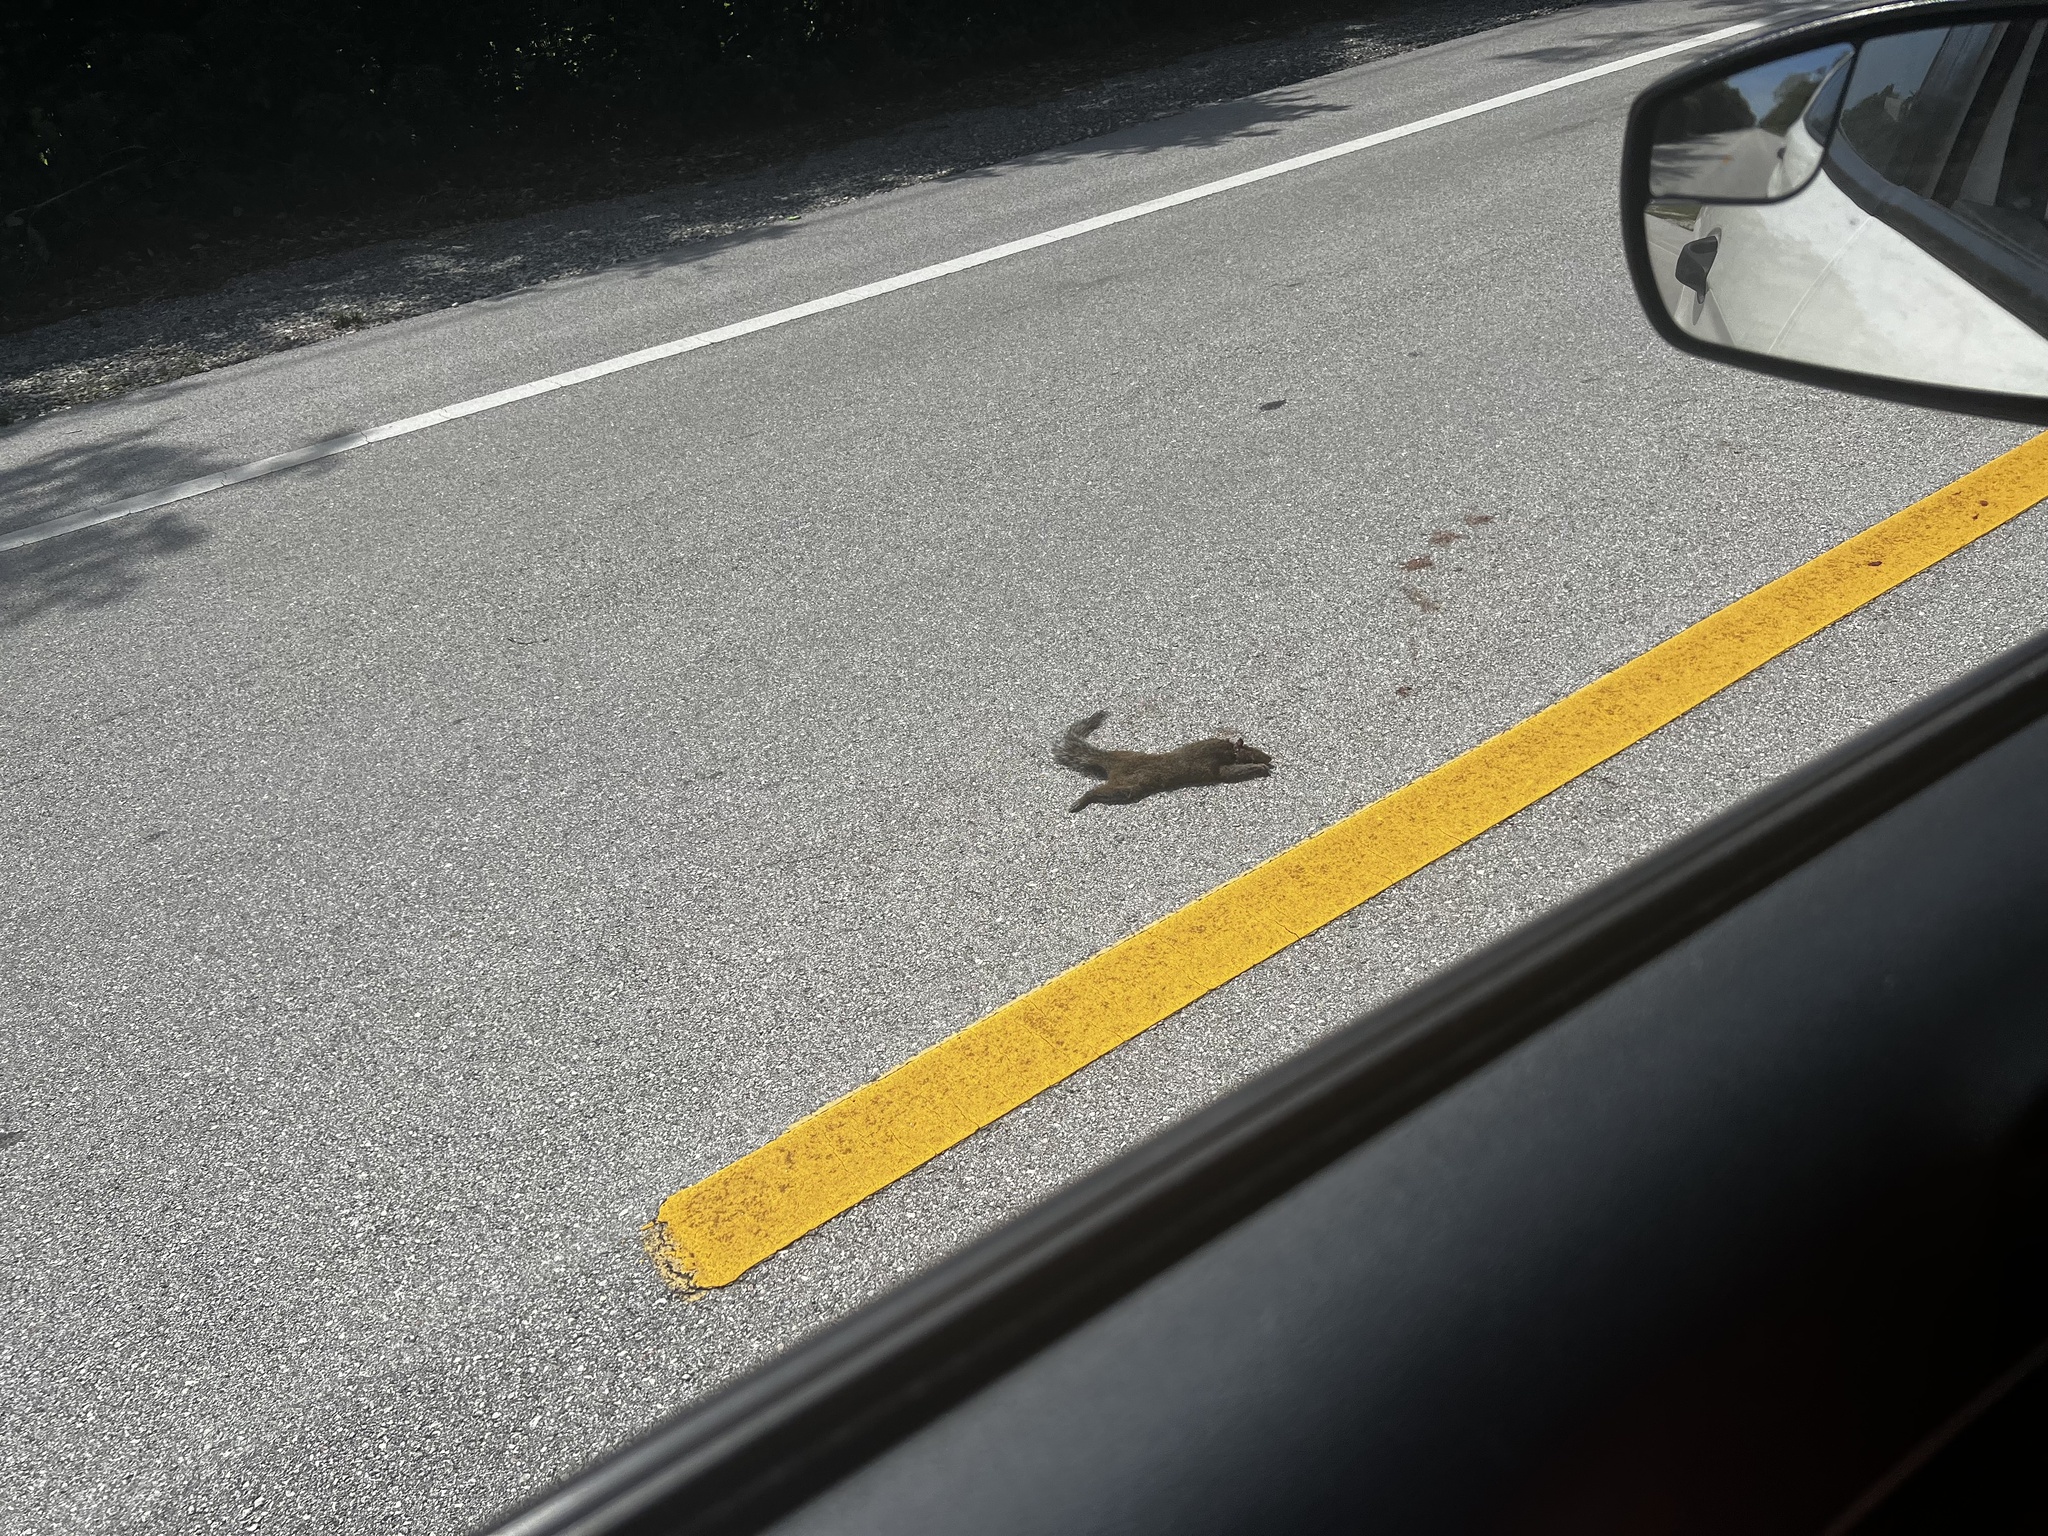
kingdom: Animalia
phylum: Chordata
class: Mammalia
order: Rodentia
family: Sciuridae
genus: Sciurus
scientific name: Sciurus carolinensis
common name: Eastern gray squirrel
